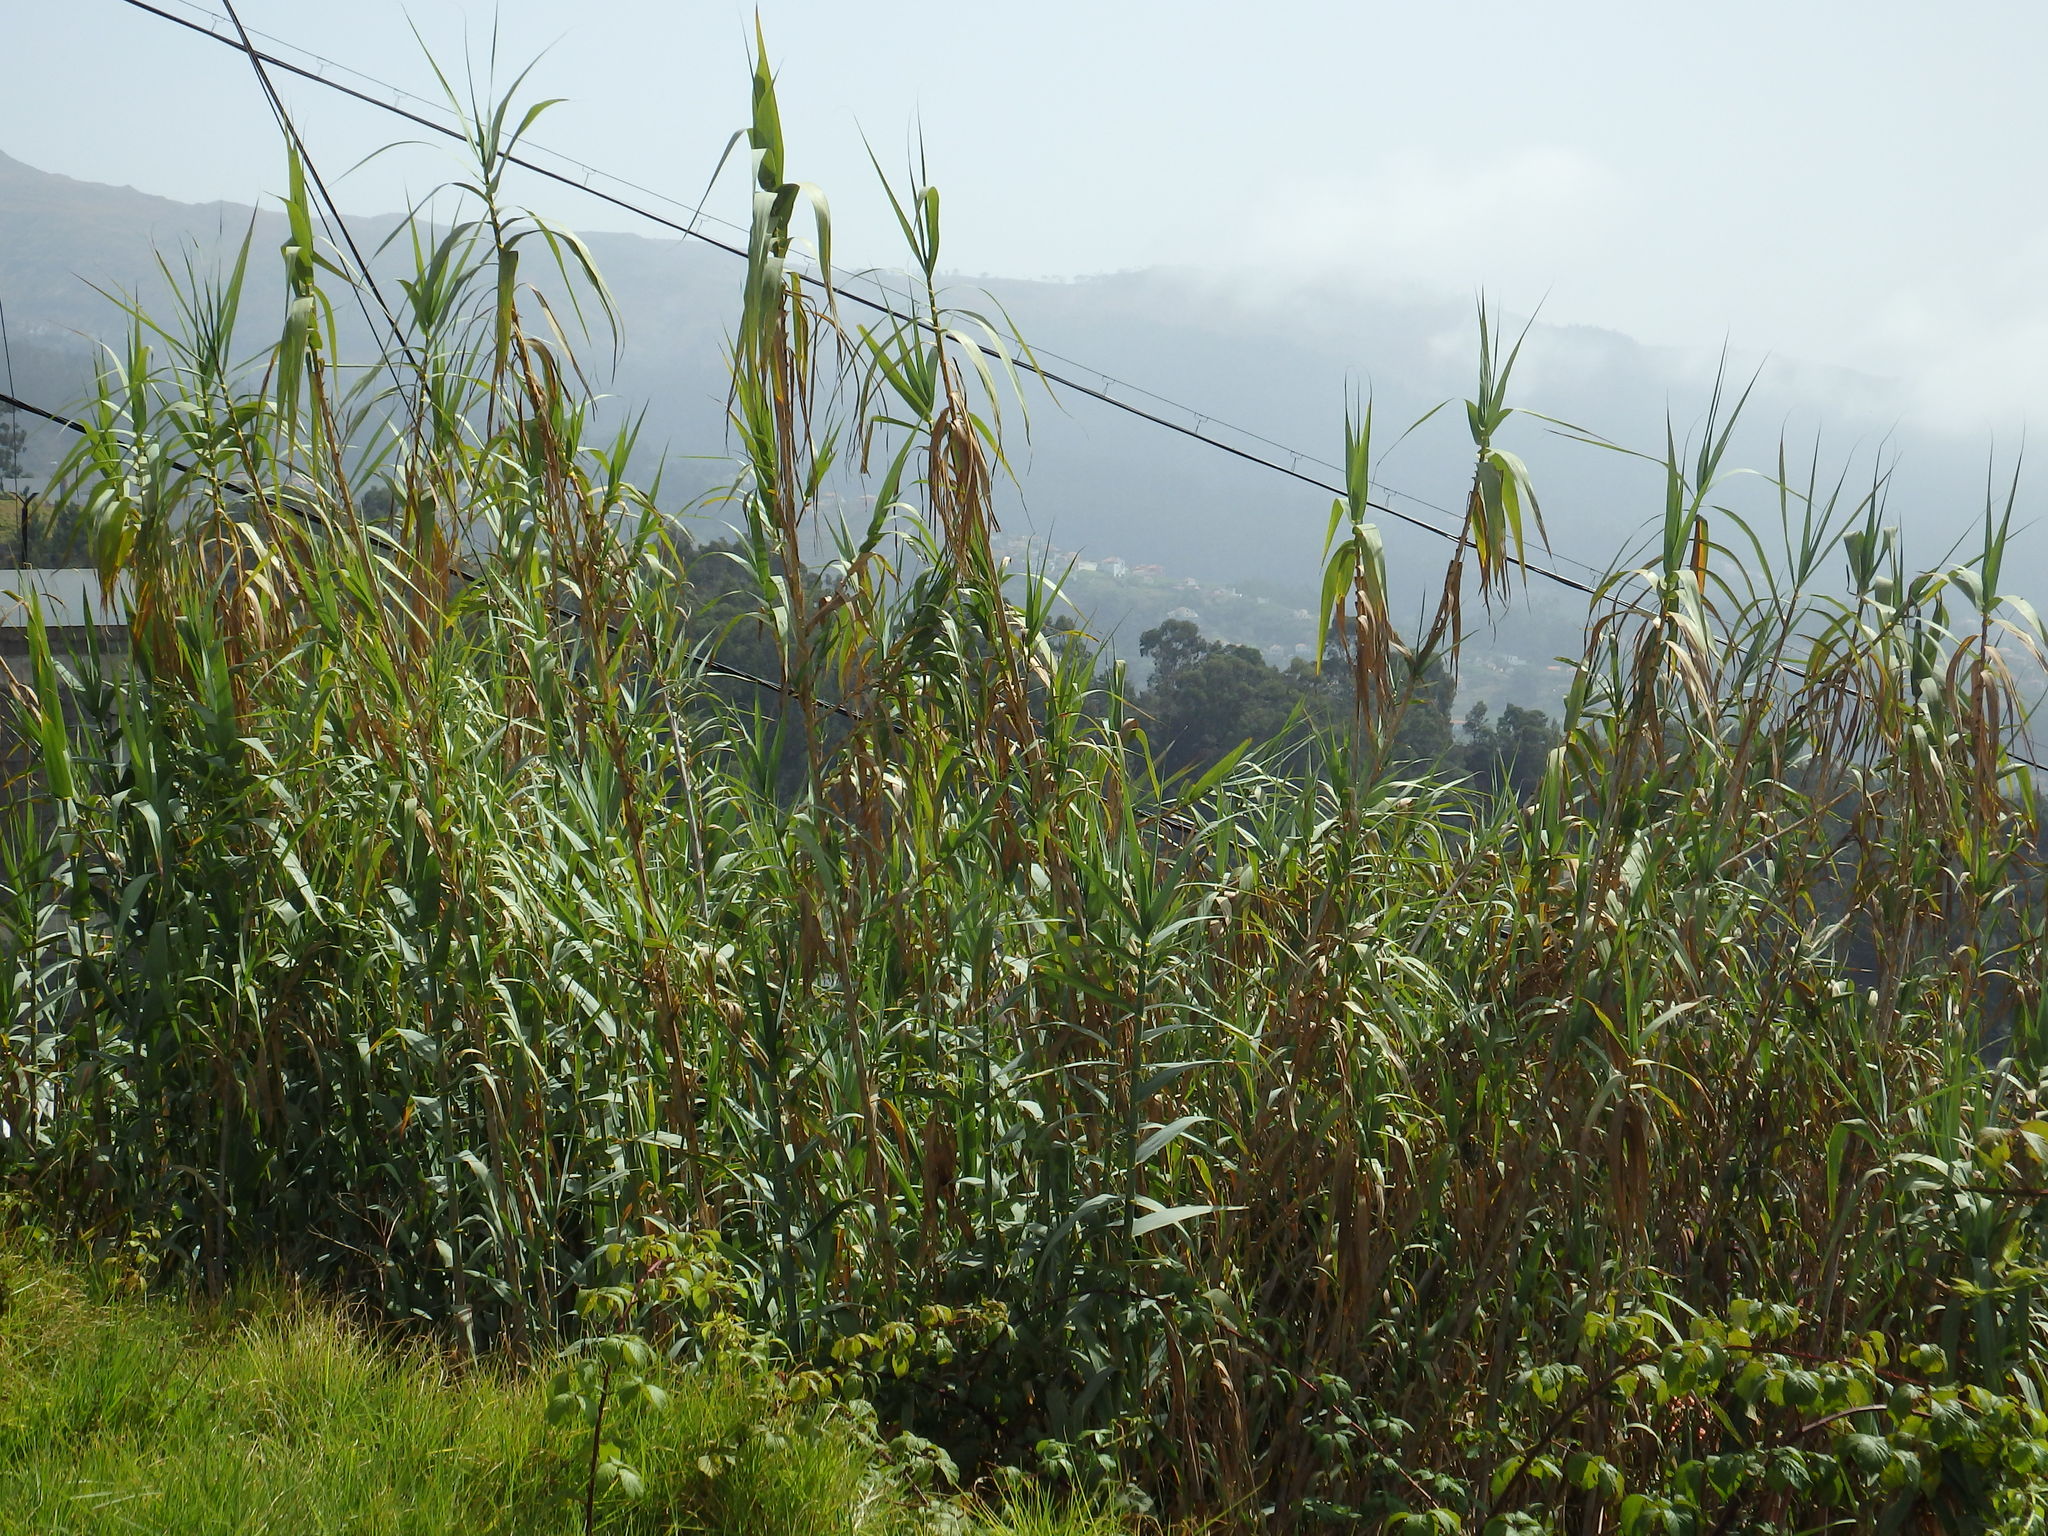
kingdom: Plantae
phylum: Tracheophyta
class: Liliopsida
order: Poales
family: Poaceae
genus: Arundo
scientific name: Arundo donax
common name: Giant reed
